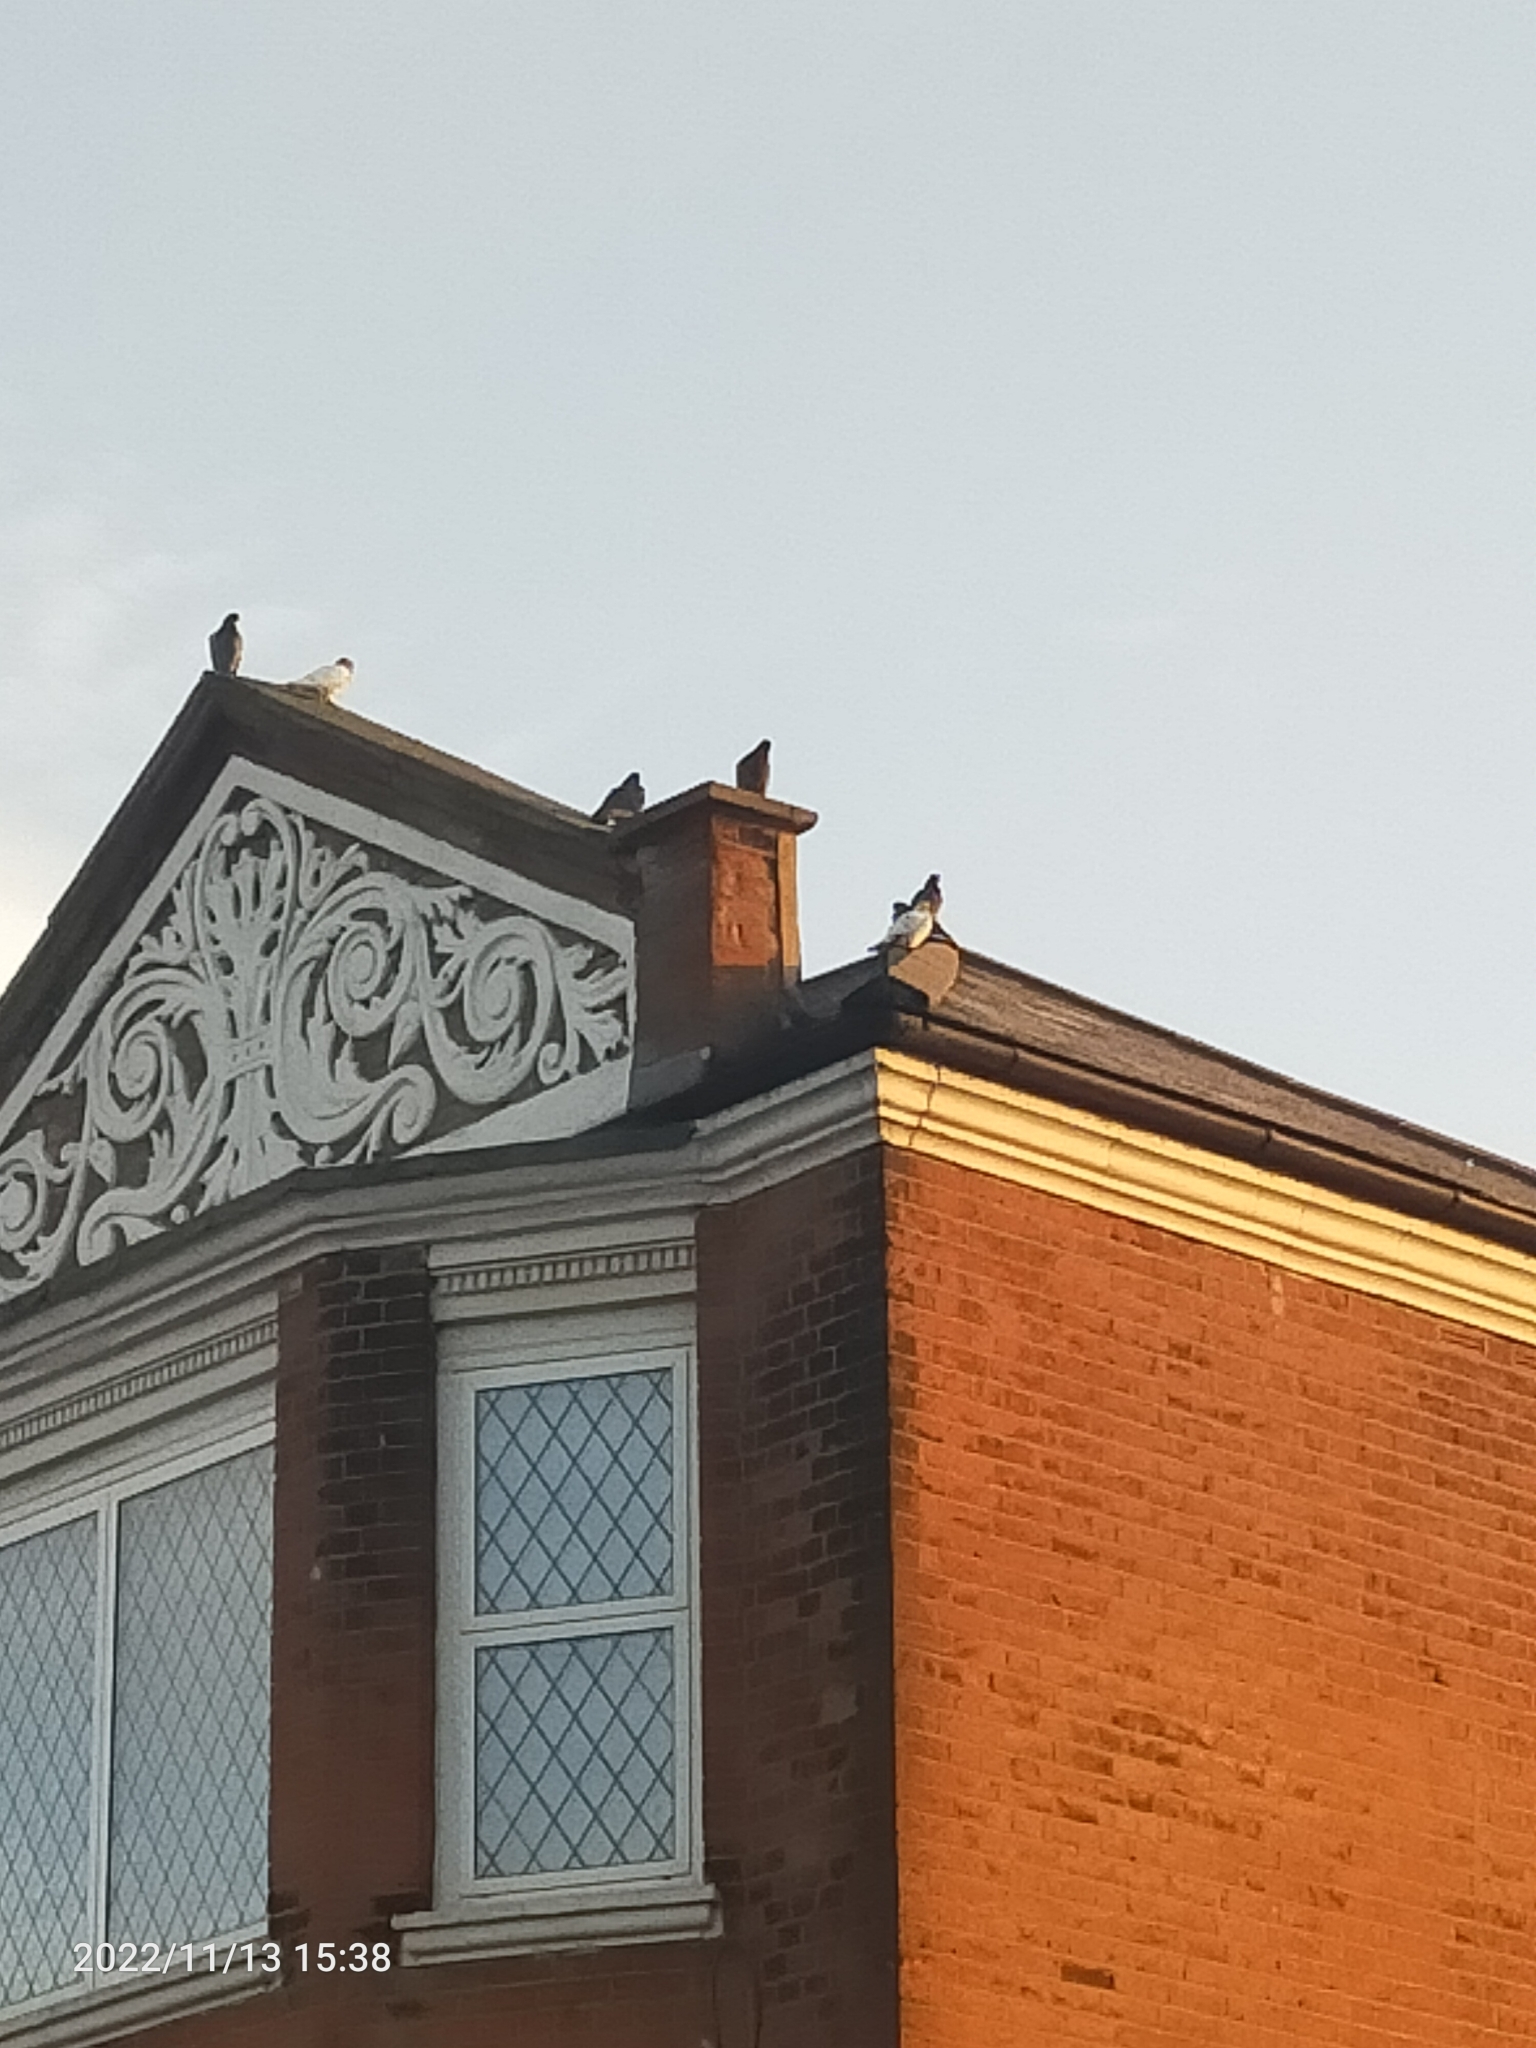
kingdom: Animalia
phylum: Chordata
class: Aves
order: Columbiformes
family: Columbidae
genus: Columba
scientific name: Columba livia
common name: Rock pigeon
